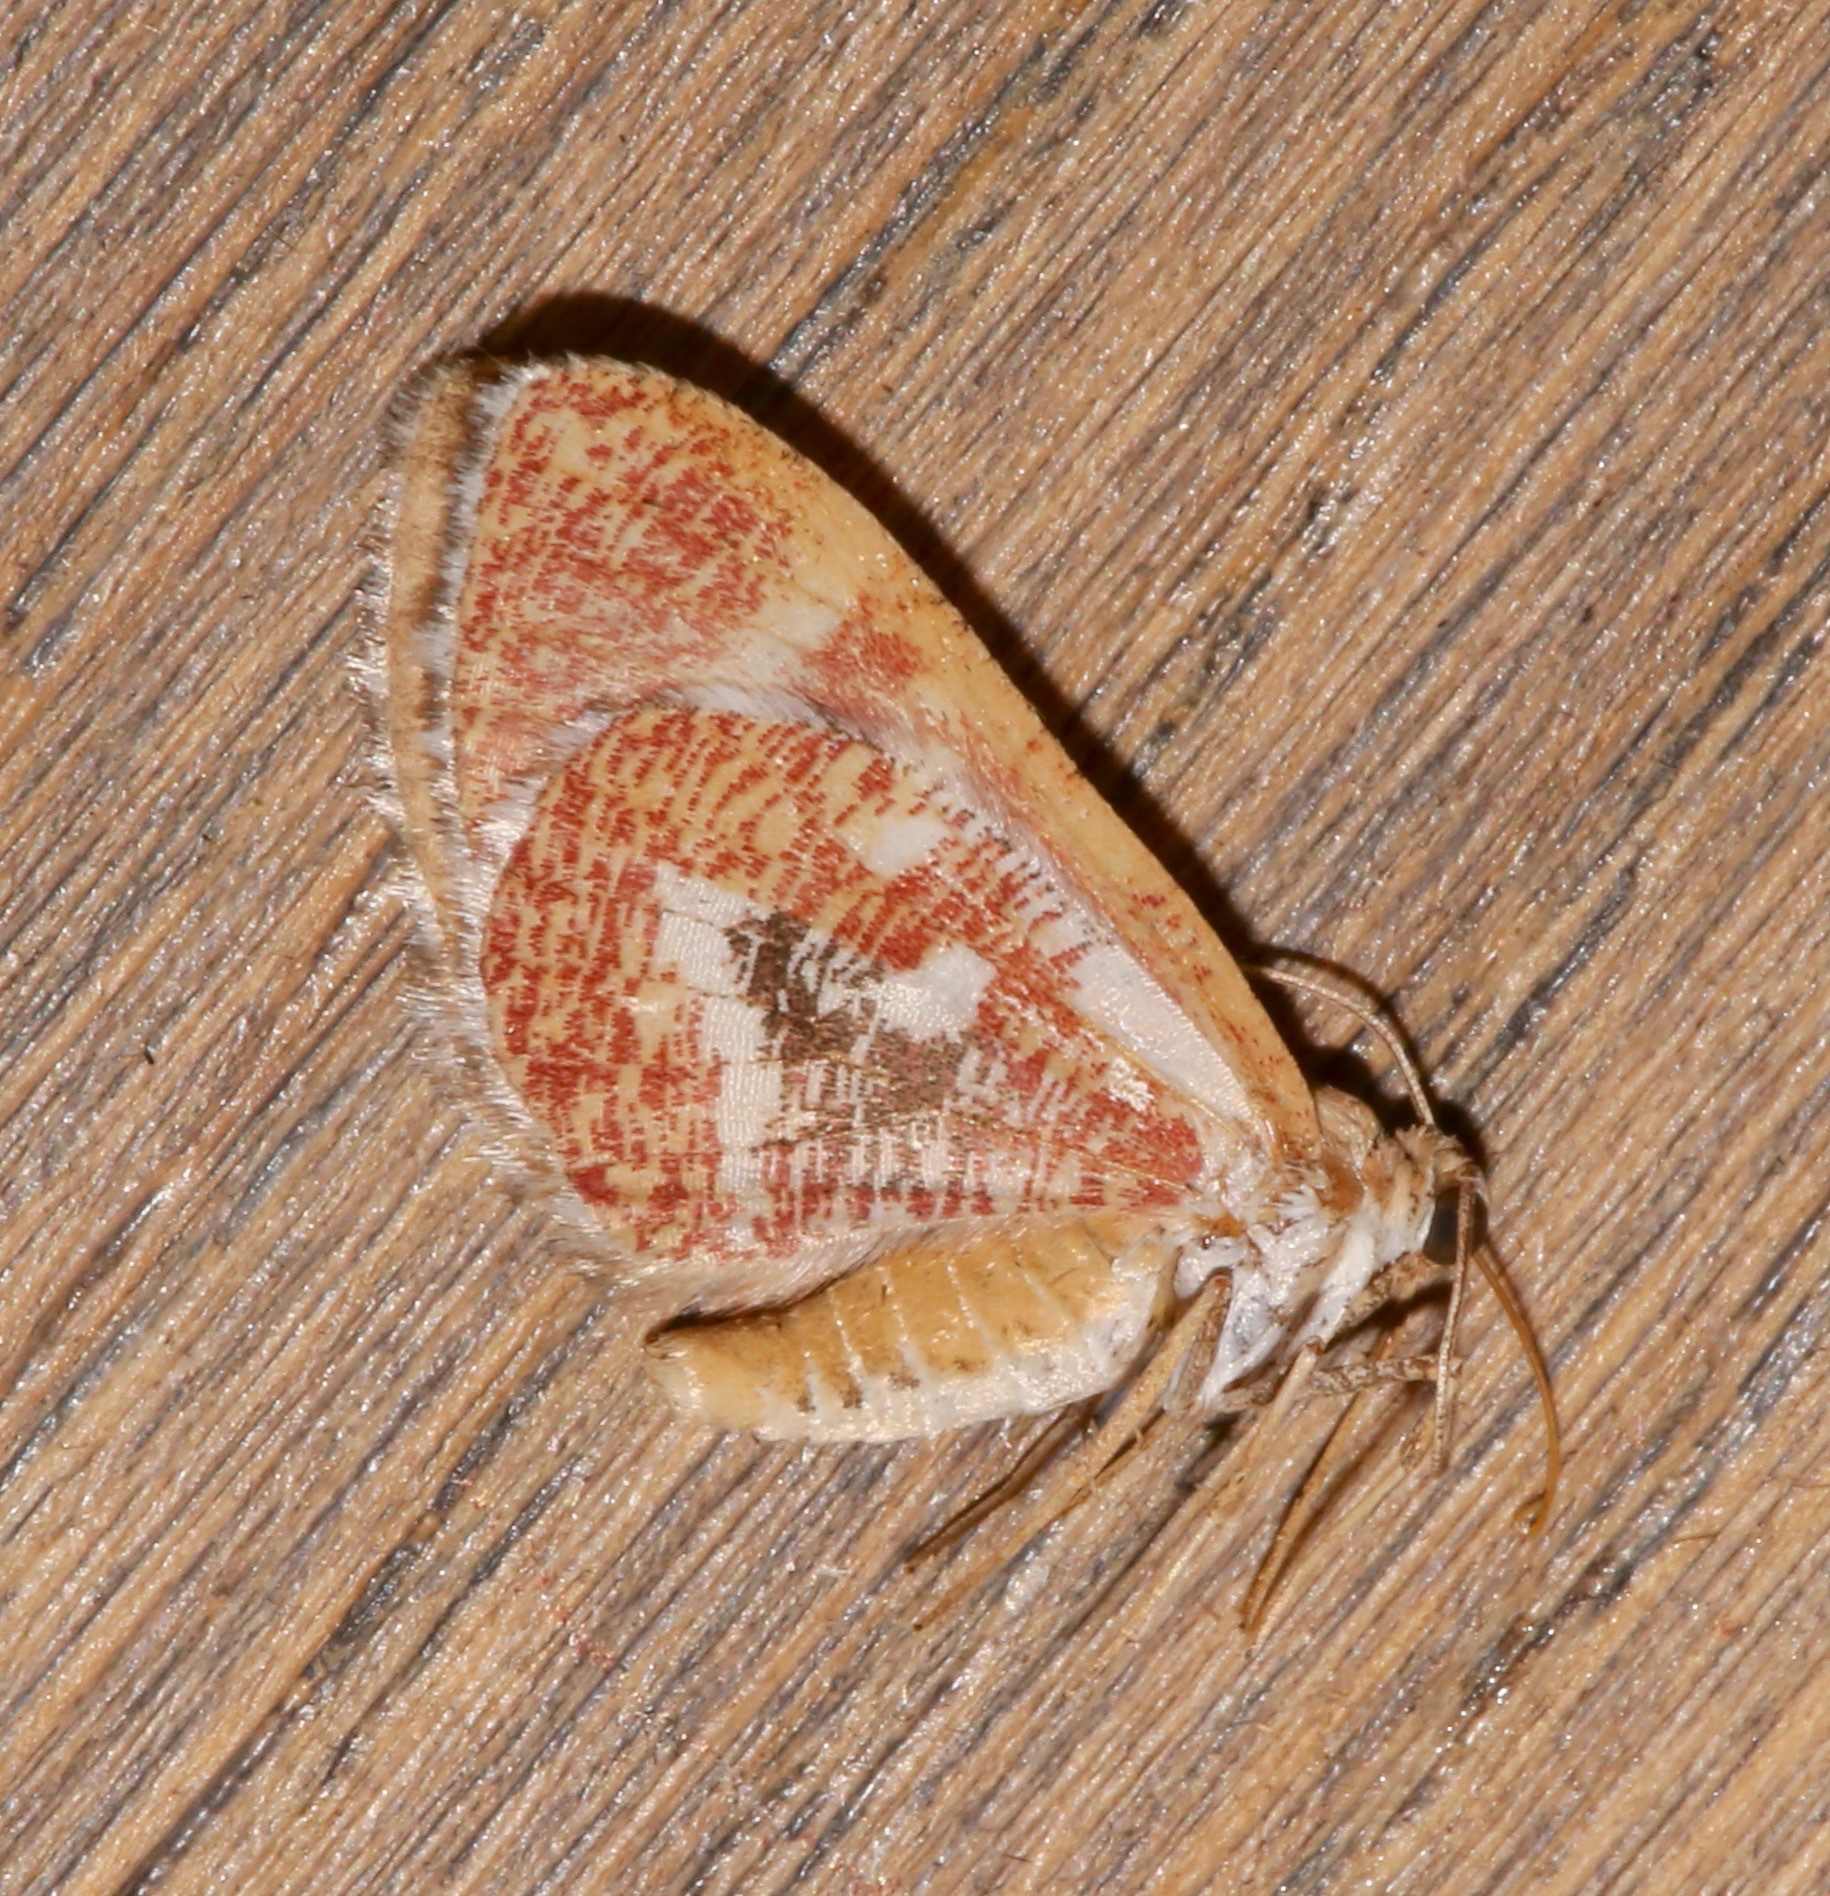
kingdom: Animalia
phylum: Arthropoda
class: Insecta
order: Lepidoptera
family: Geometridae
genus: Stamnodes
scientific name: Stamnodes formosata
